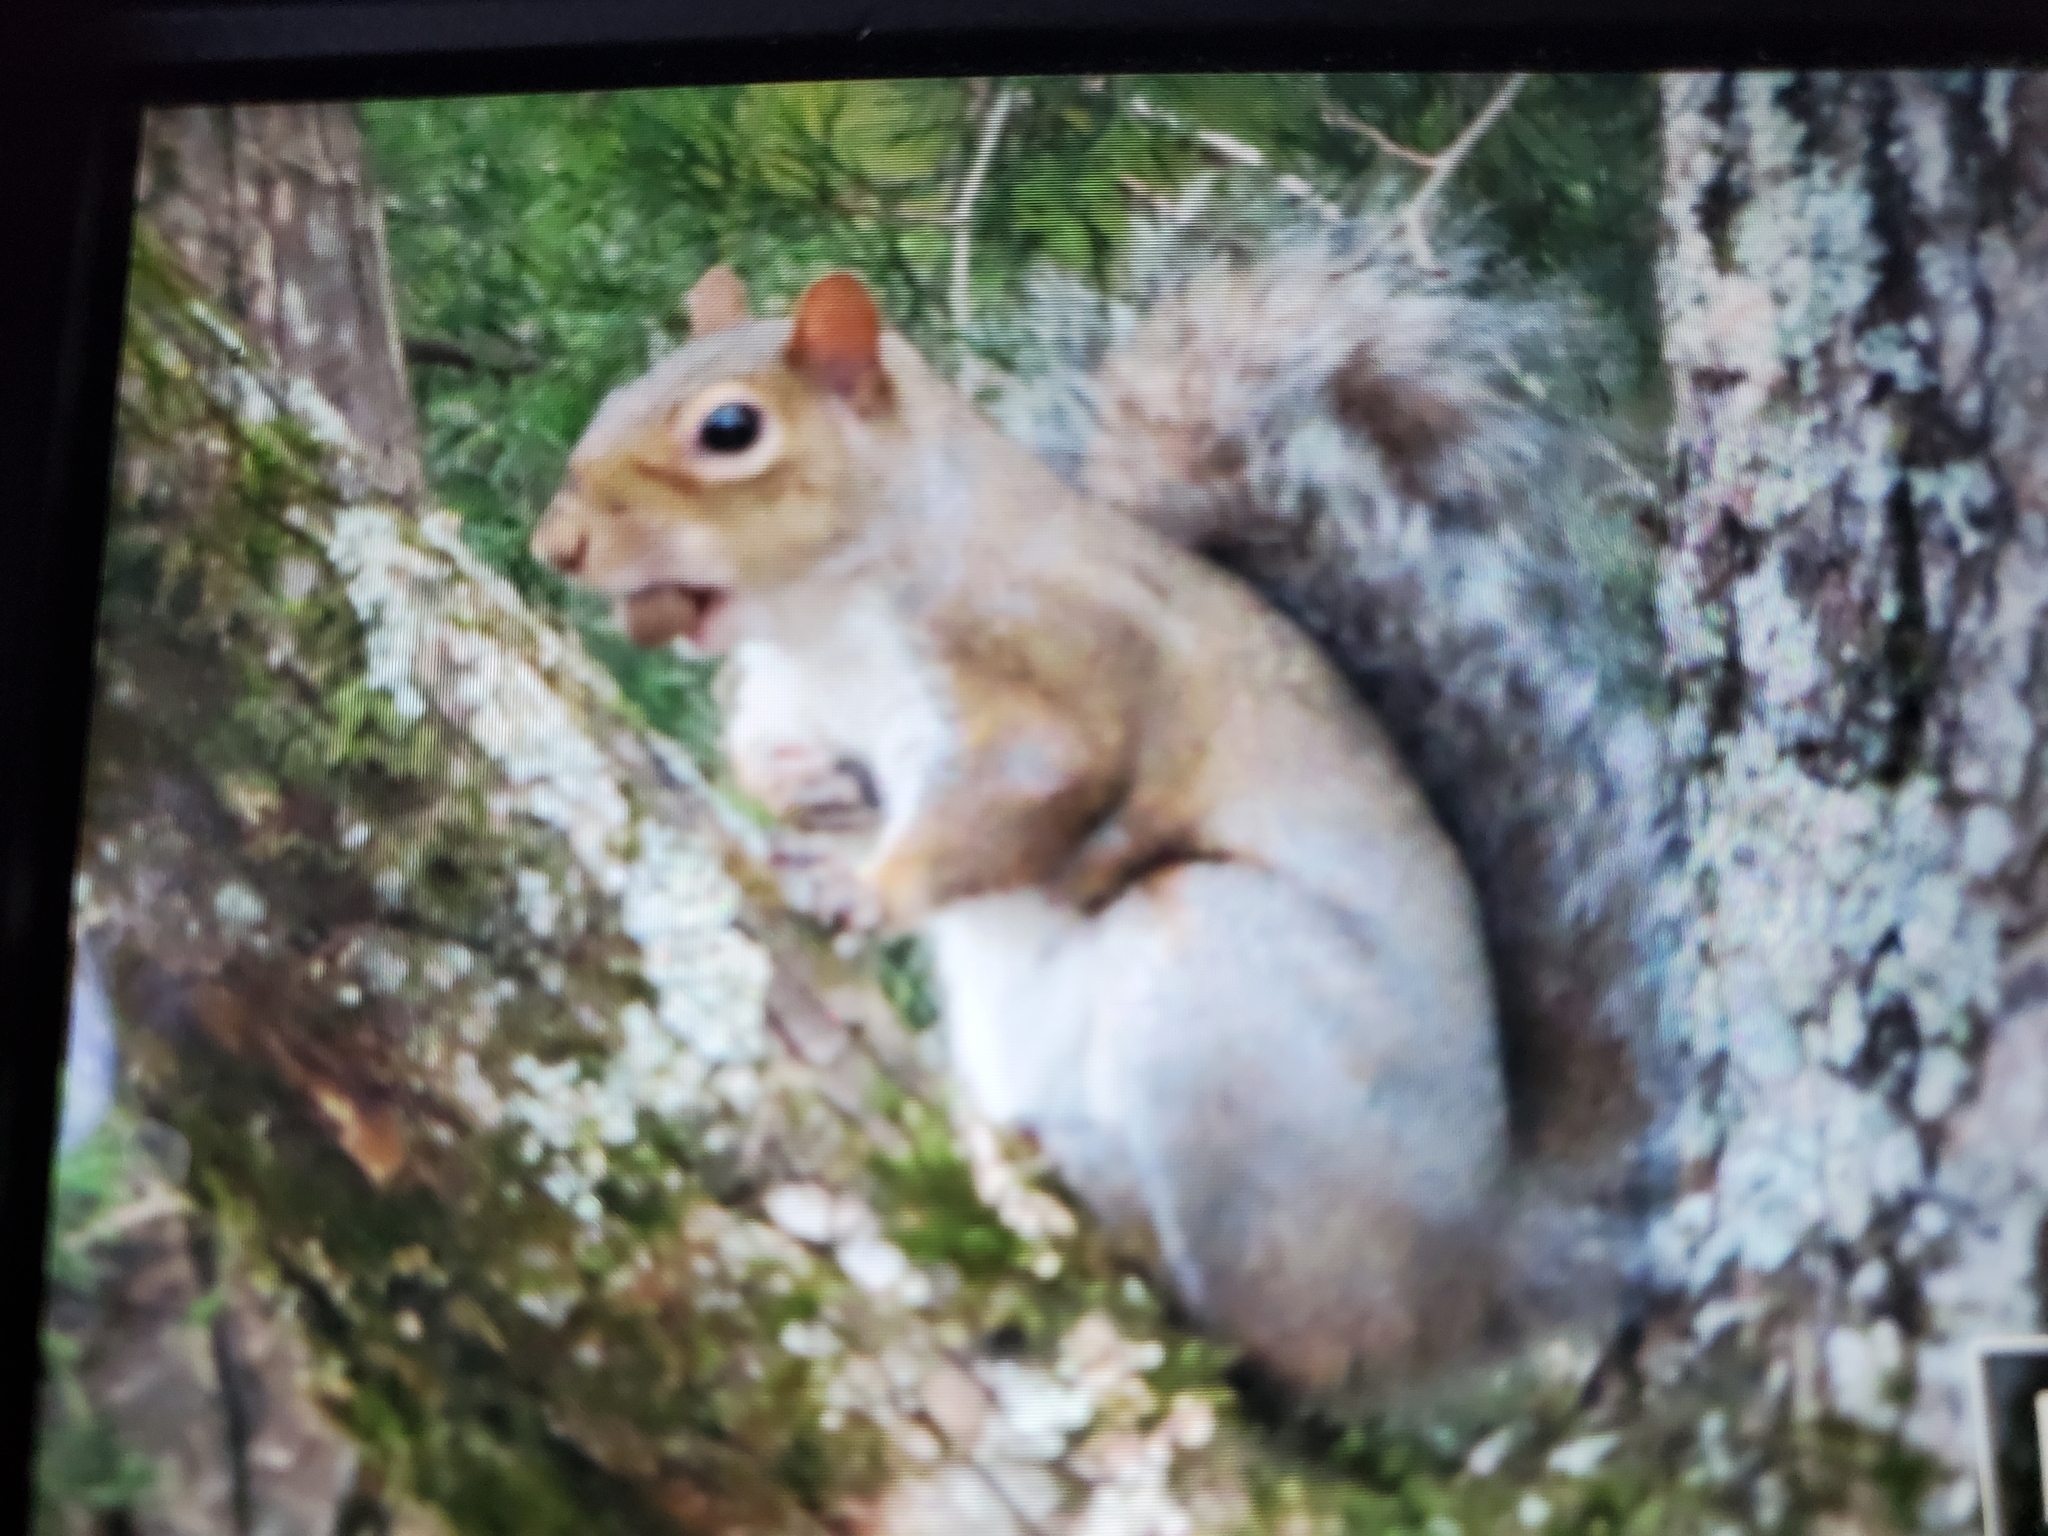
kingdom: Animalia
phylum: Chordata
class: Mammalia
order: Rodentia
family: Sciuridae
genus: Sciurus
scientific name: Sciurus carolinensis
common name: Eastern gray squirrel
